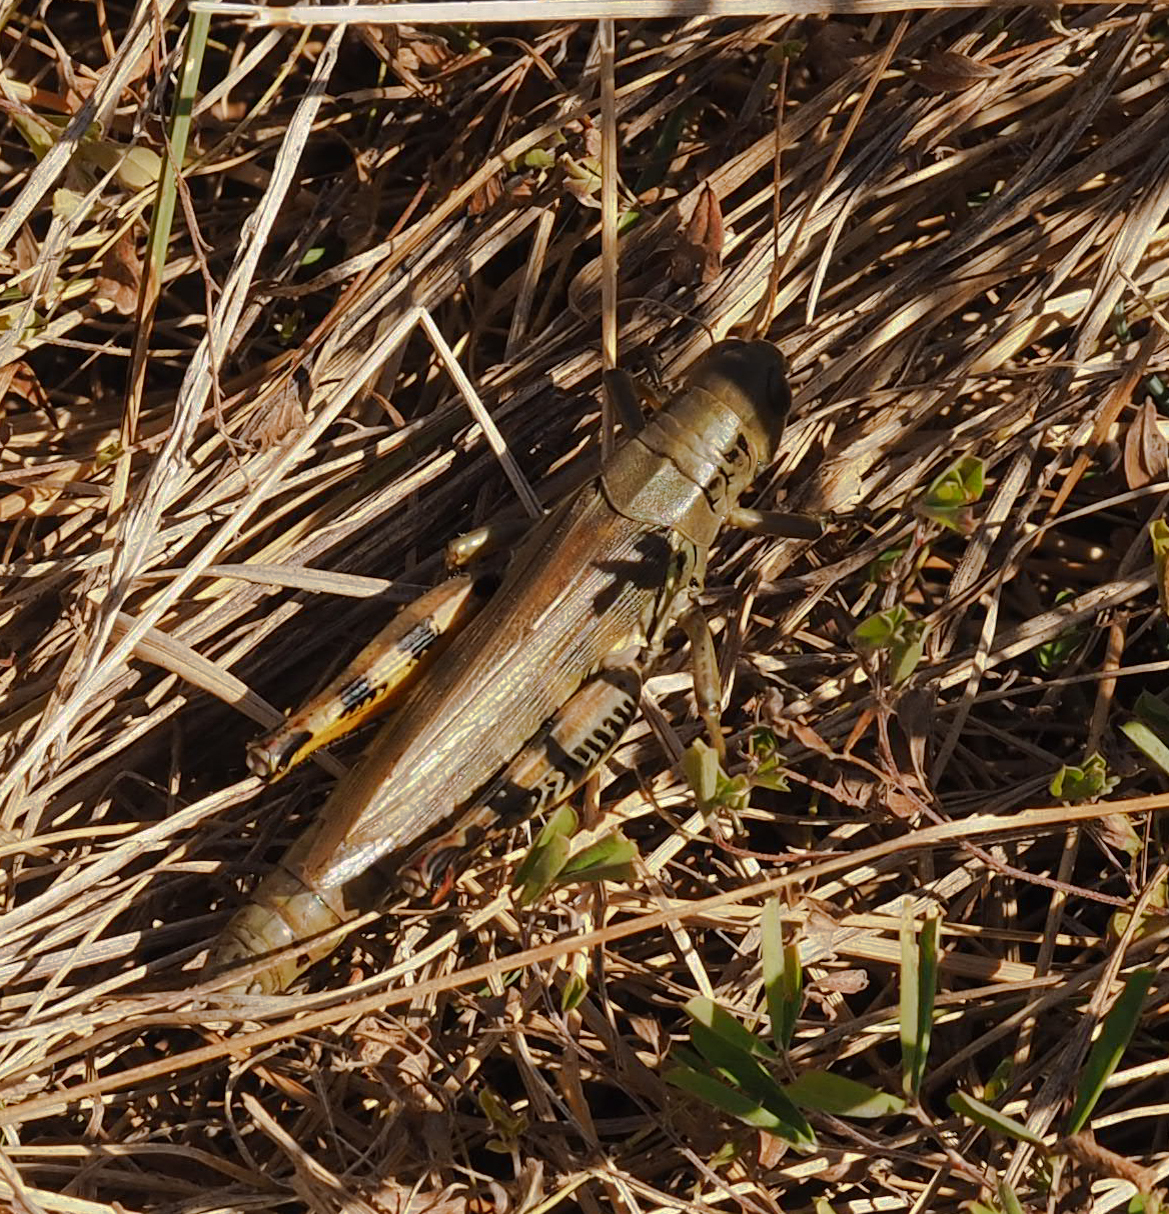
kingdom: Animalia
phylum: Arthropoda
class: Insecta
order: Orthoptera
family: Acrididae
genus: Melanoplus
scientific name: Melanoplus differentialis
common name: Differential grasshopper
